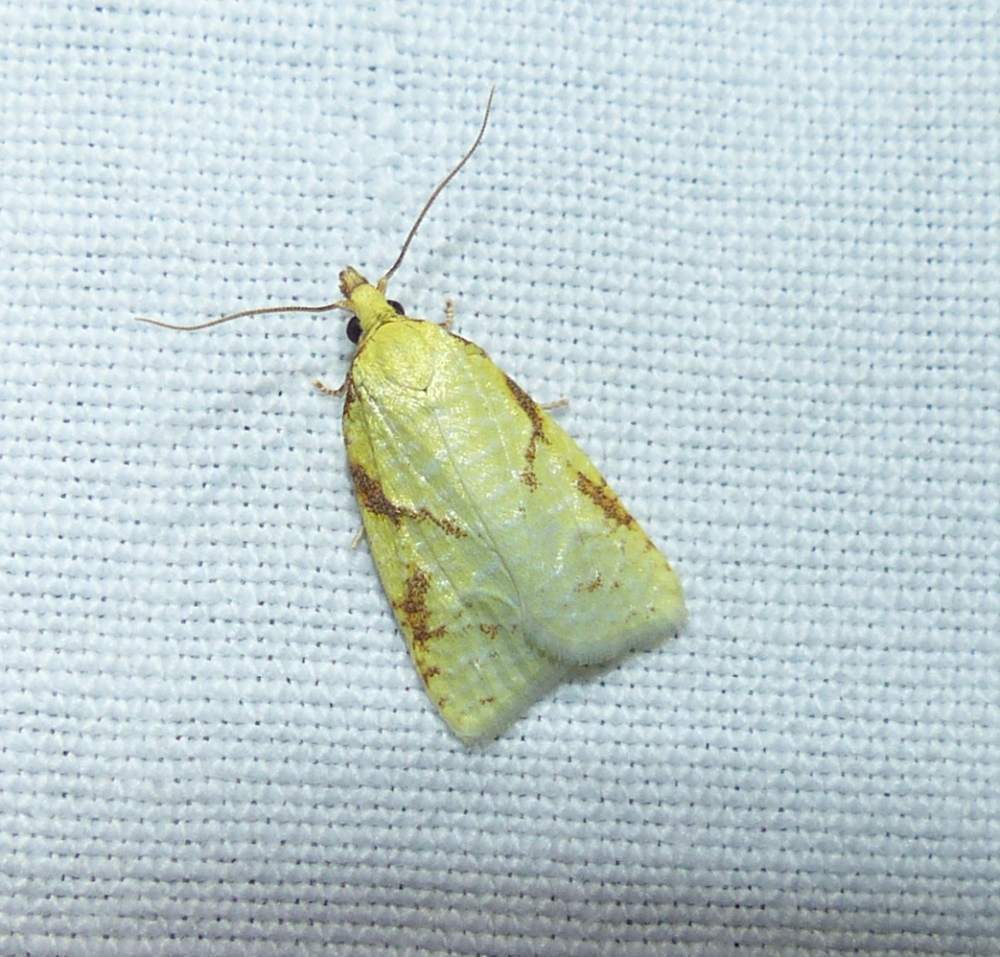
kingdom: Animalia
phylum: Arthropoda
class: Insecta
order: Lepidoptera
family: Tortricidae
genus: Cenopis
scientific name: Cenopis pettitana
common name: Maple-basswood leafroller moth
